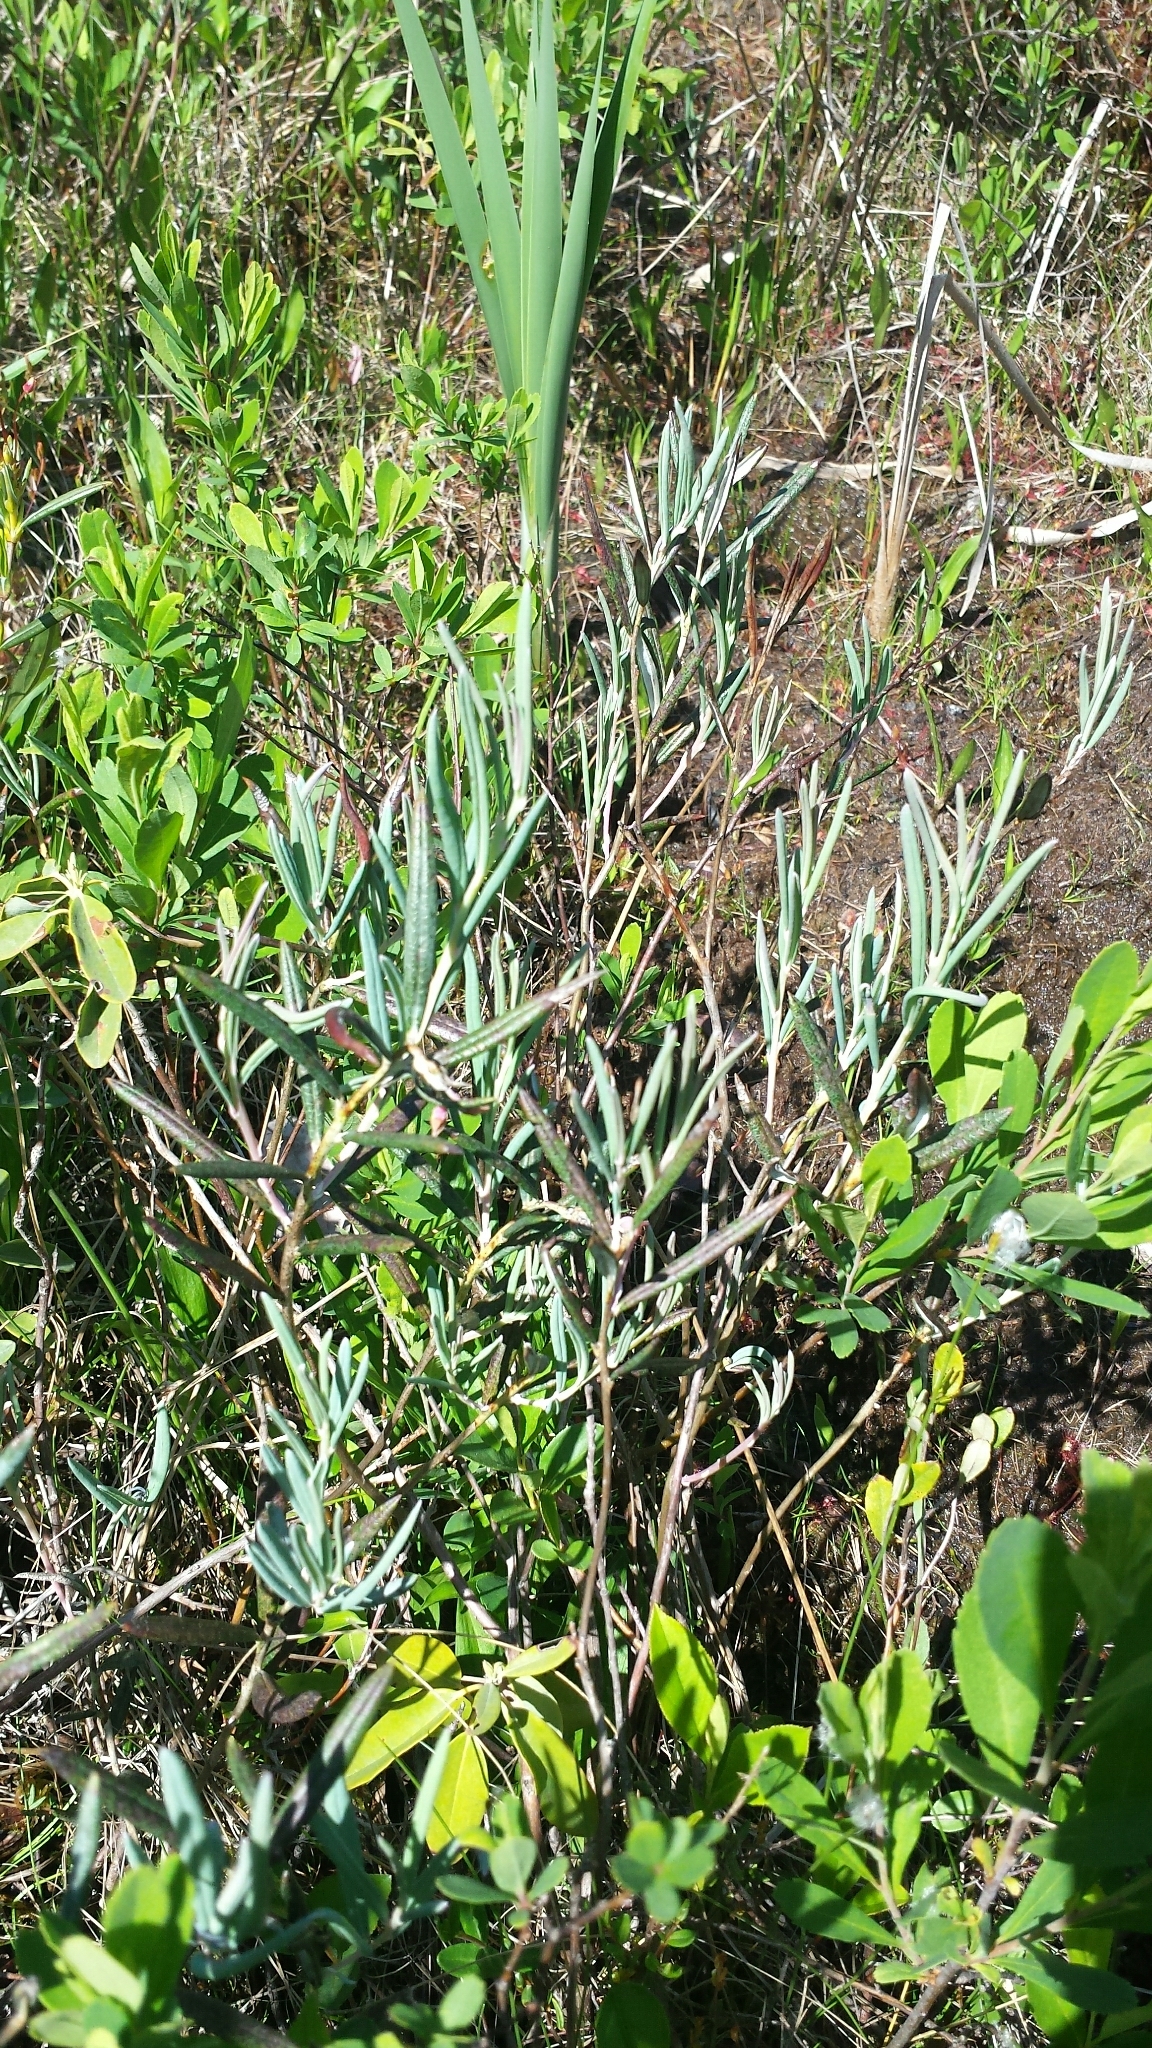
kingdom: Plantae
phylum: Tracheophyta
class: Magnoliopsida
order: Ericales
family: Ericaceae
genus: Andromeda
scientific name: Andromeda polifolia
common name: Bog-rosemary
